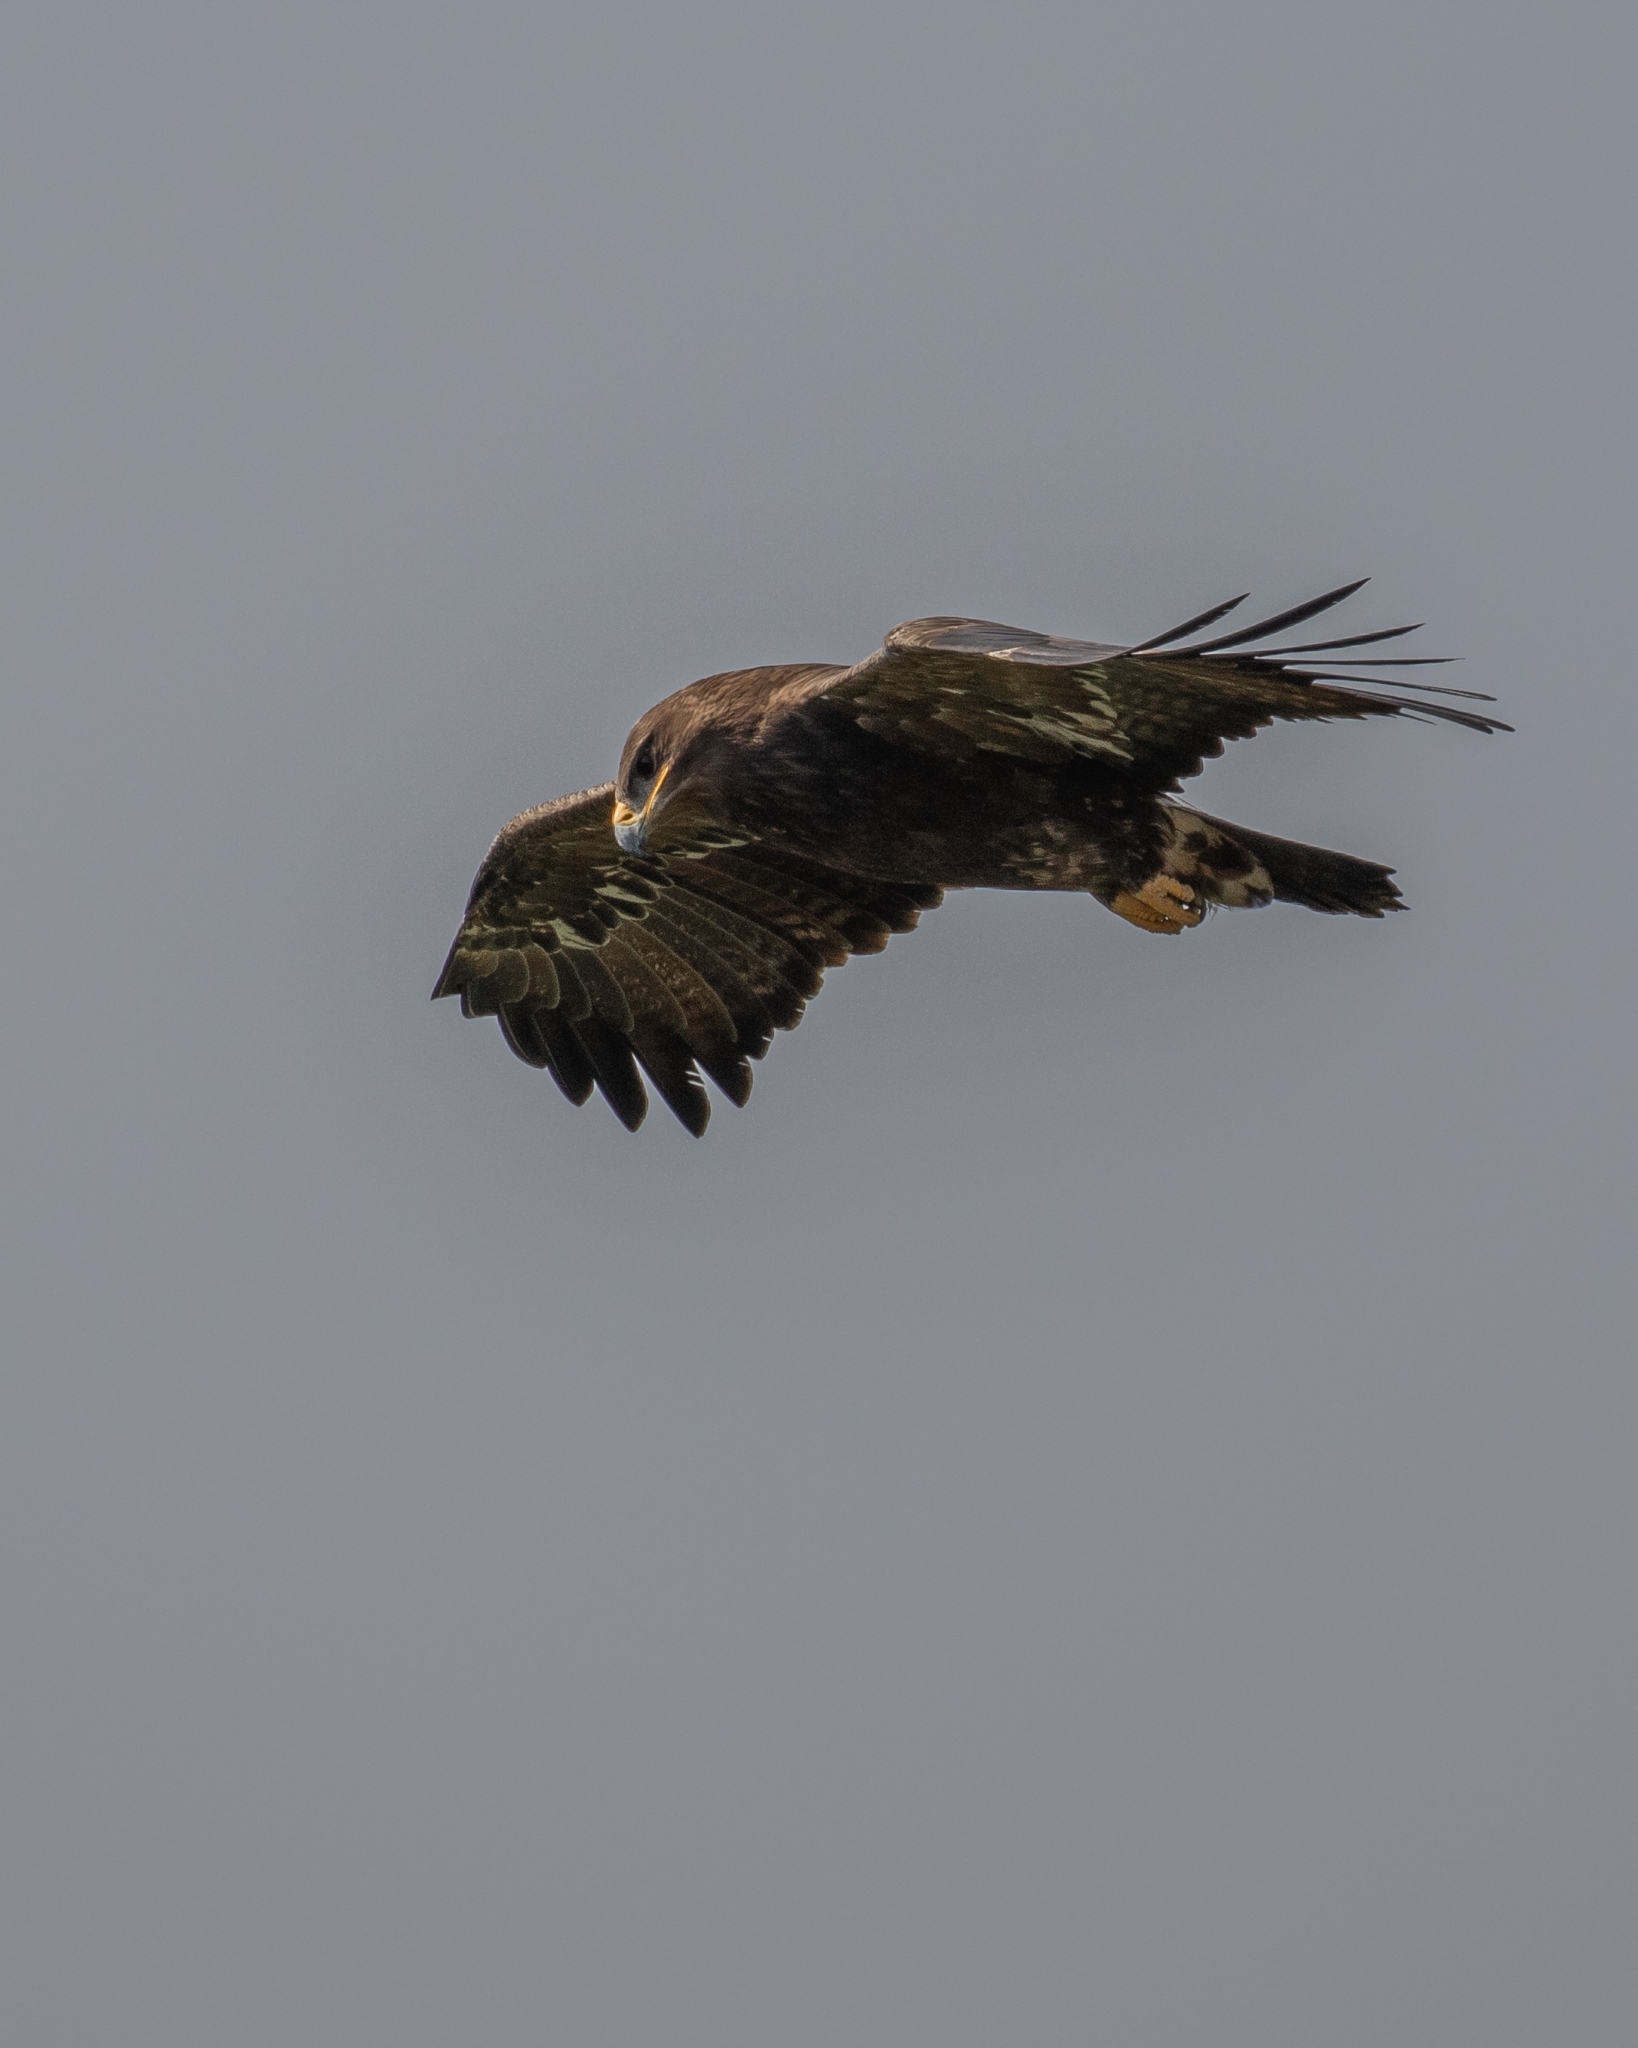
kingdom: Animalia
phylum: Chordata
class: Aves
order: Accipitriformes
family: Accipitridae
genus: Aquila
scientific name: Aquila nipalensis
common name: Steppe eagle
